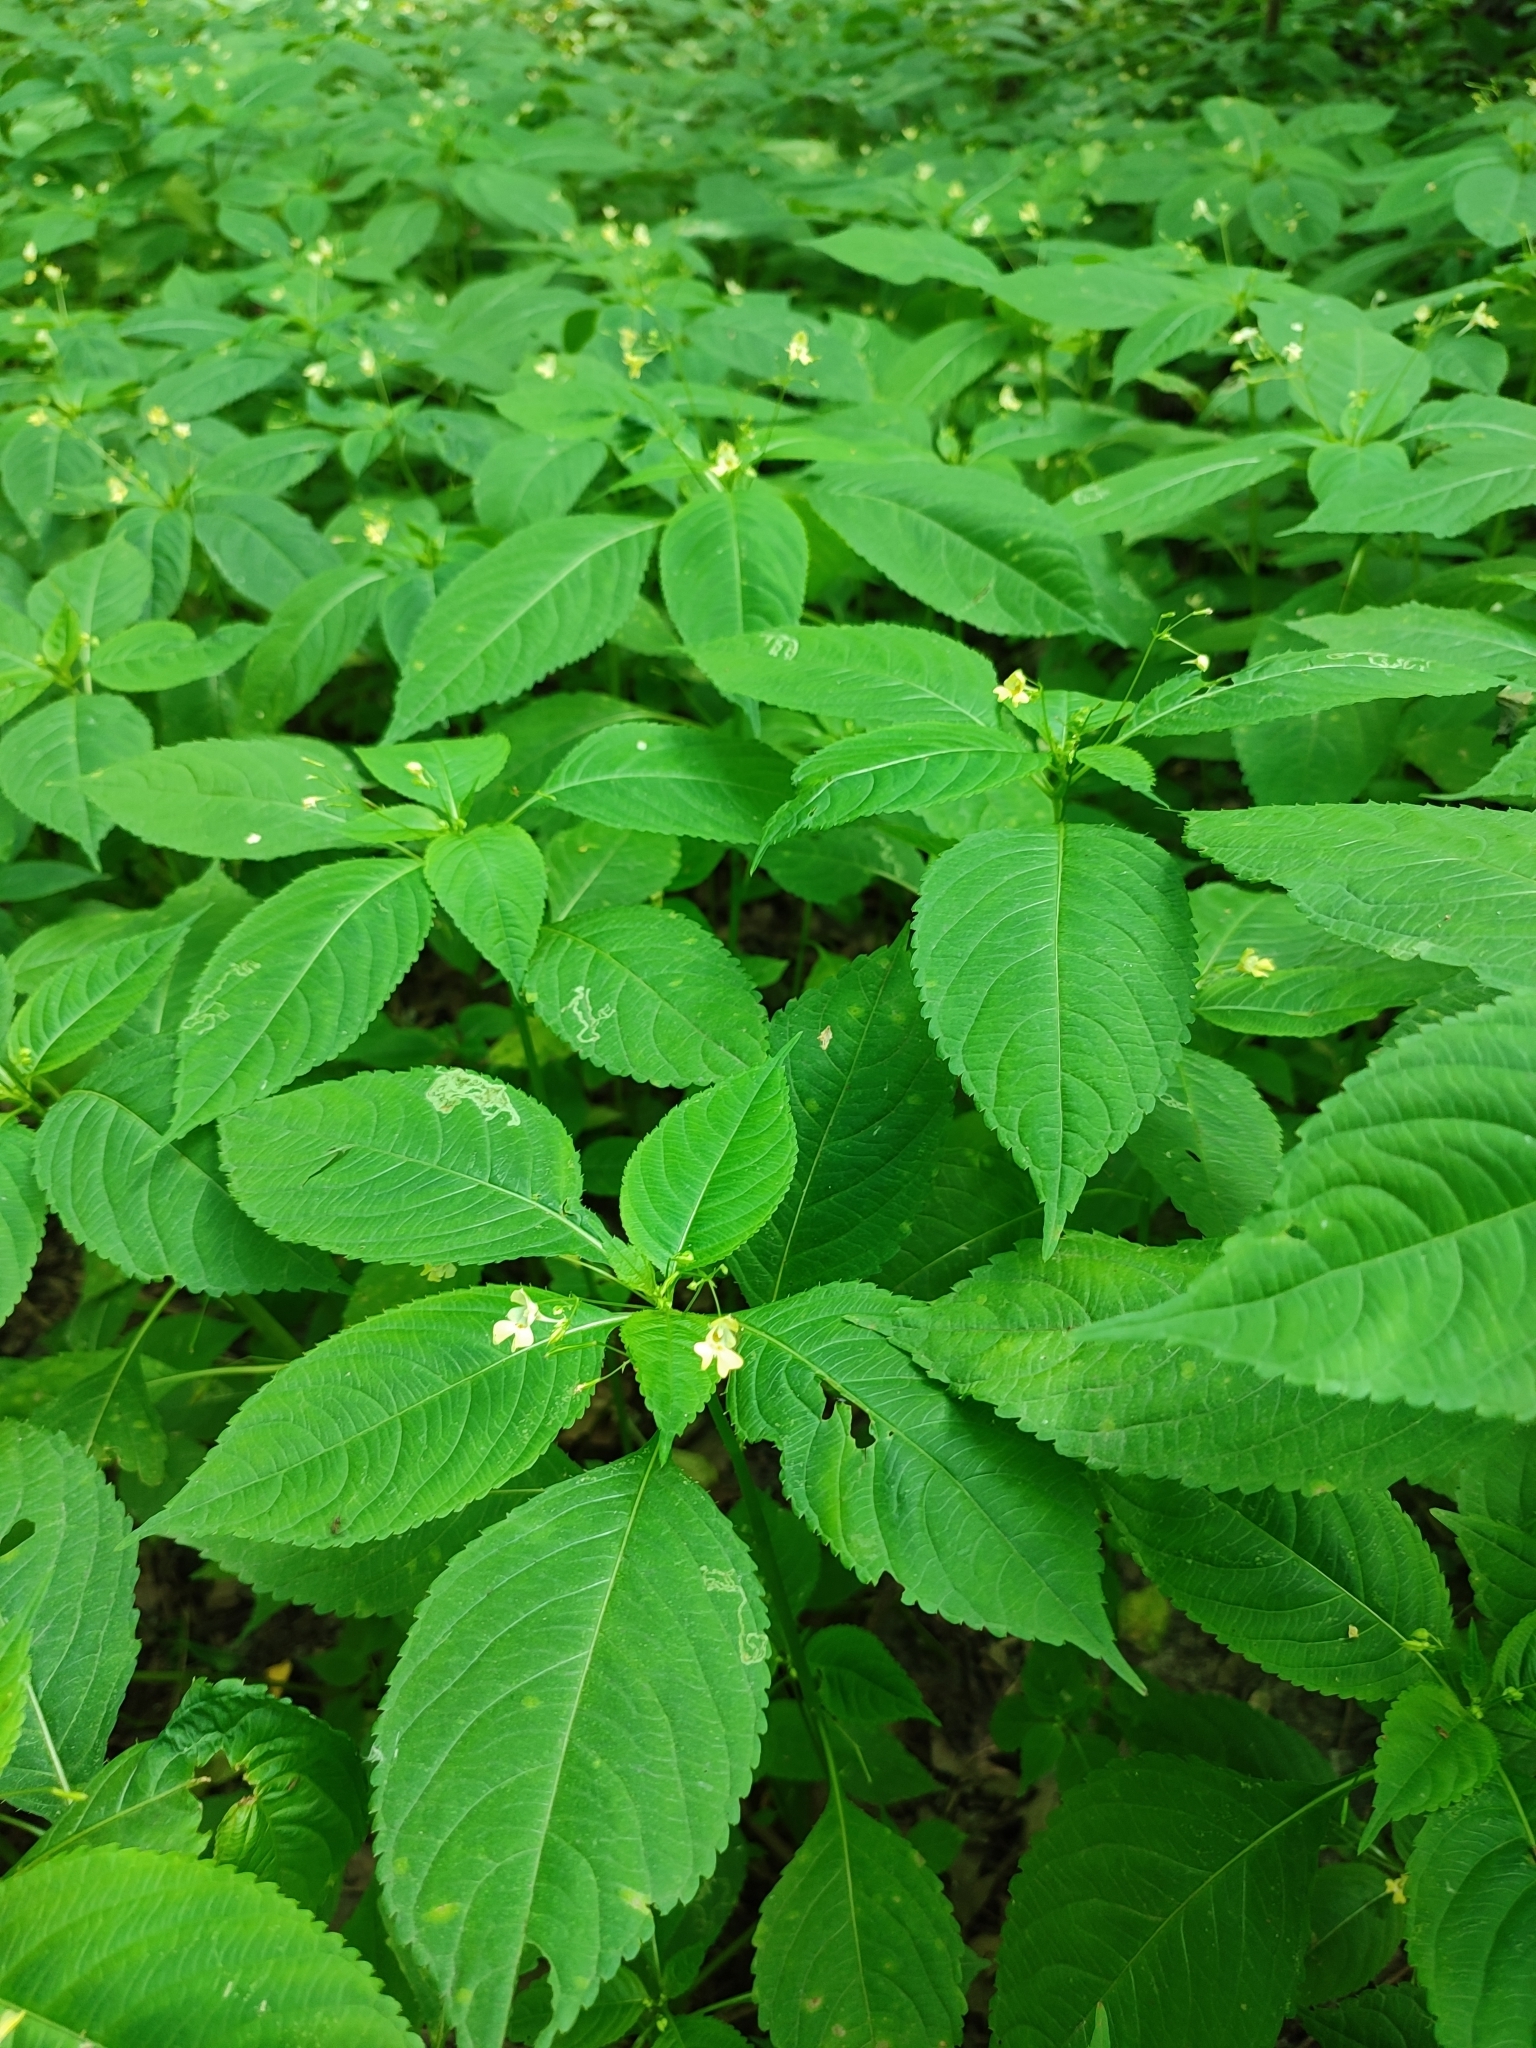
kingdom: Plantae
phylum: Tracheophyta
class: Magnoliopsida
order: Ericales
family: Balsaminaceae
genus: Impatiens
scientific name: Impatiens parviflora
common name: Small balsam
